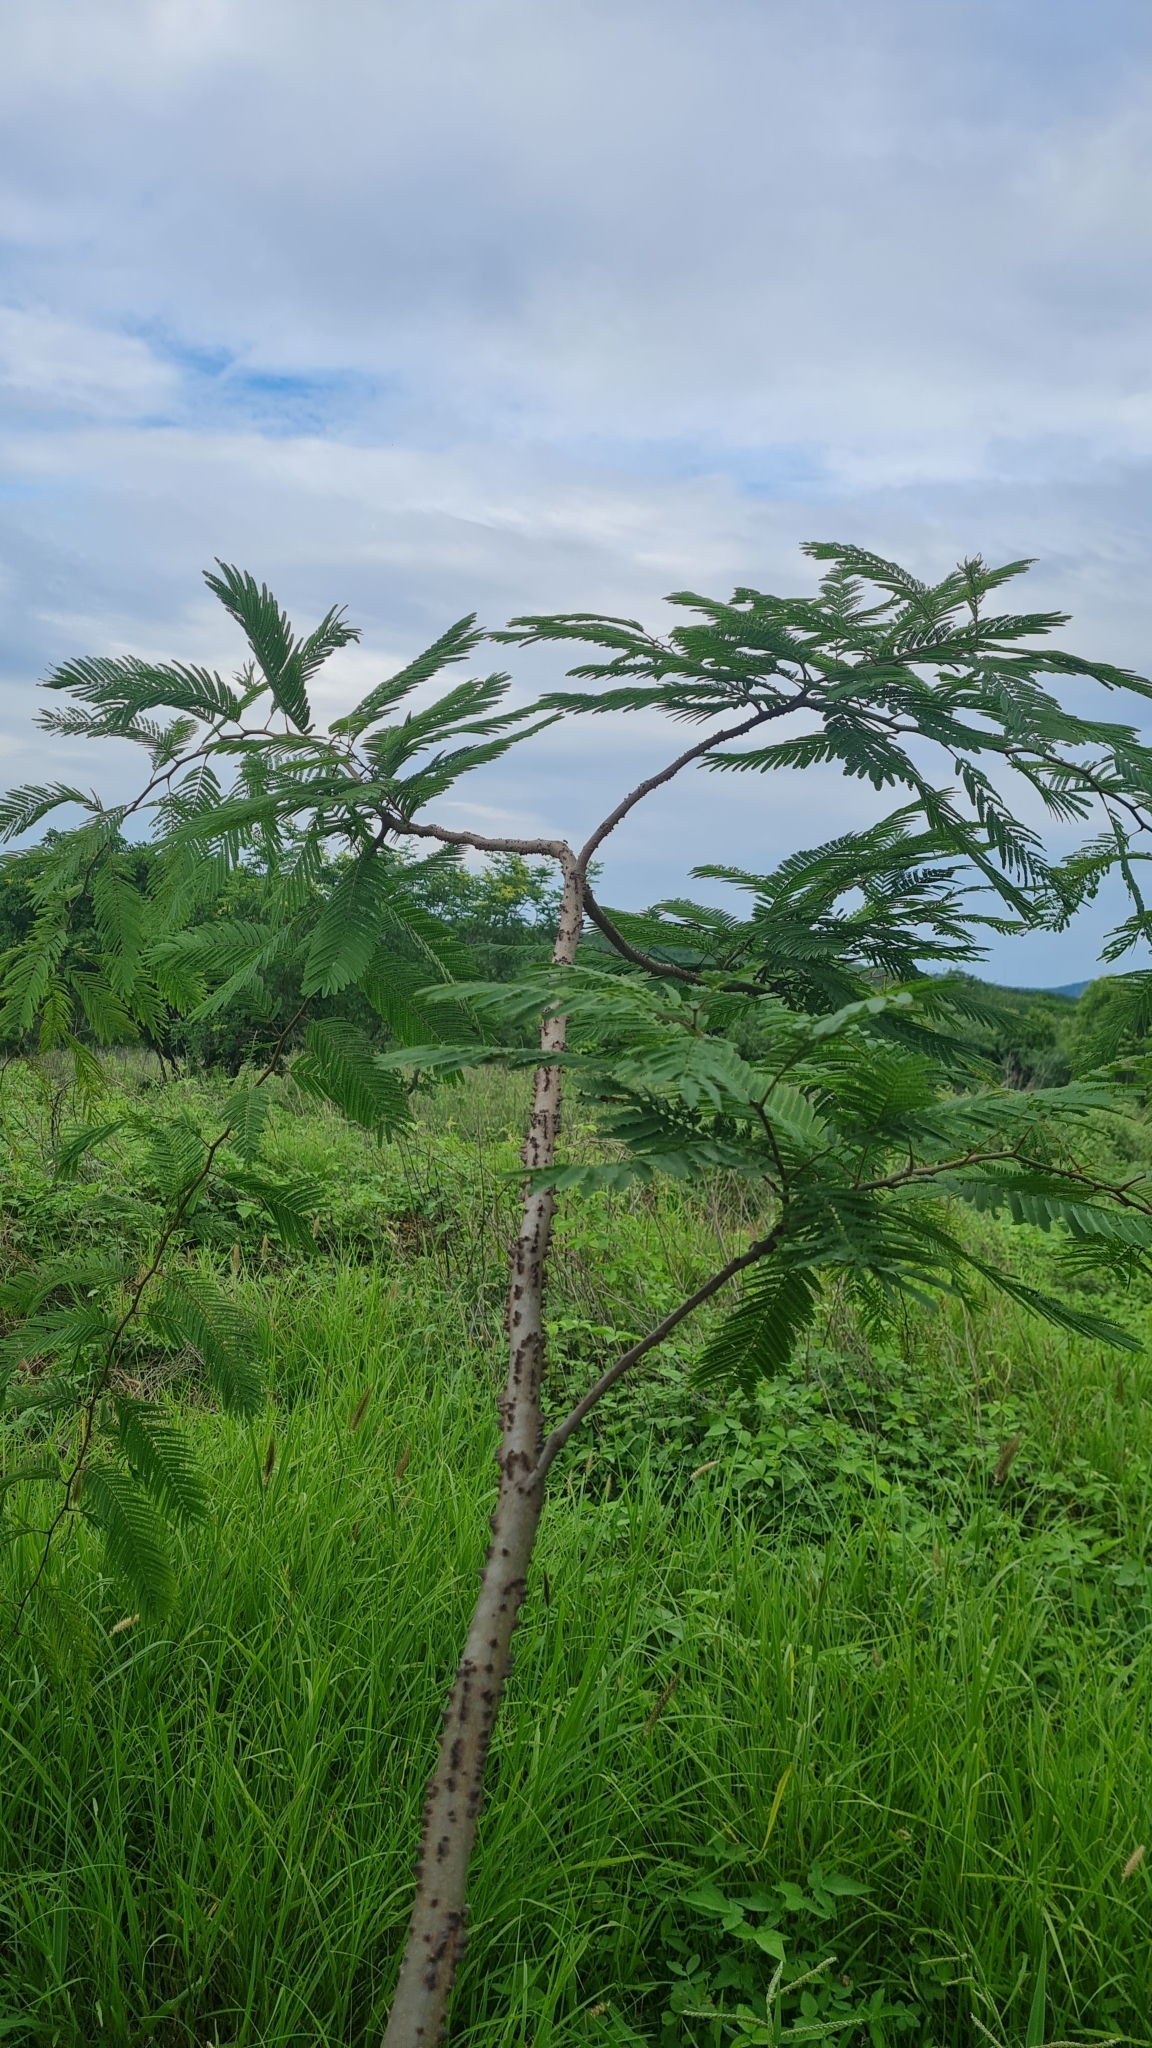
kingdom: Plantae
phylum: Tracheophyta
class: Magnoliopsida
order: Fabales
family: Fabaceae
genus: Anadenanthera
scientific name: Anadenanthera colubrina
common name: Curupay
